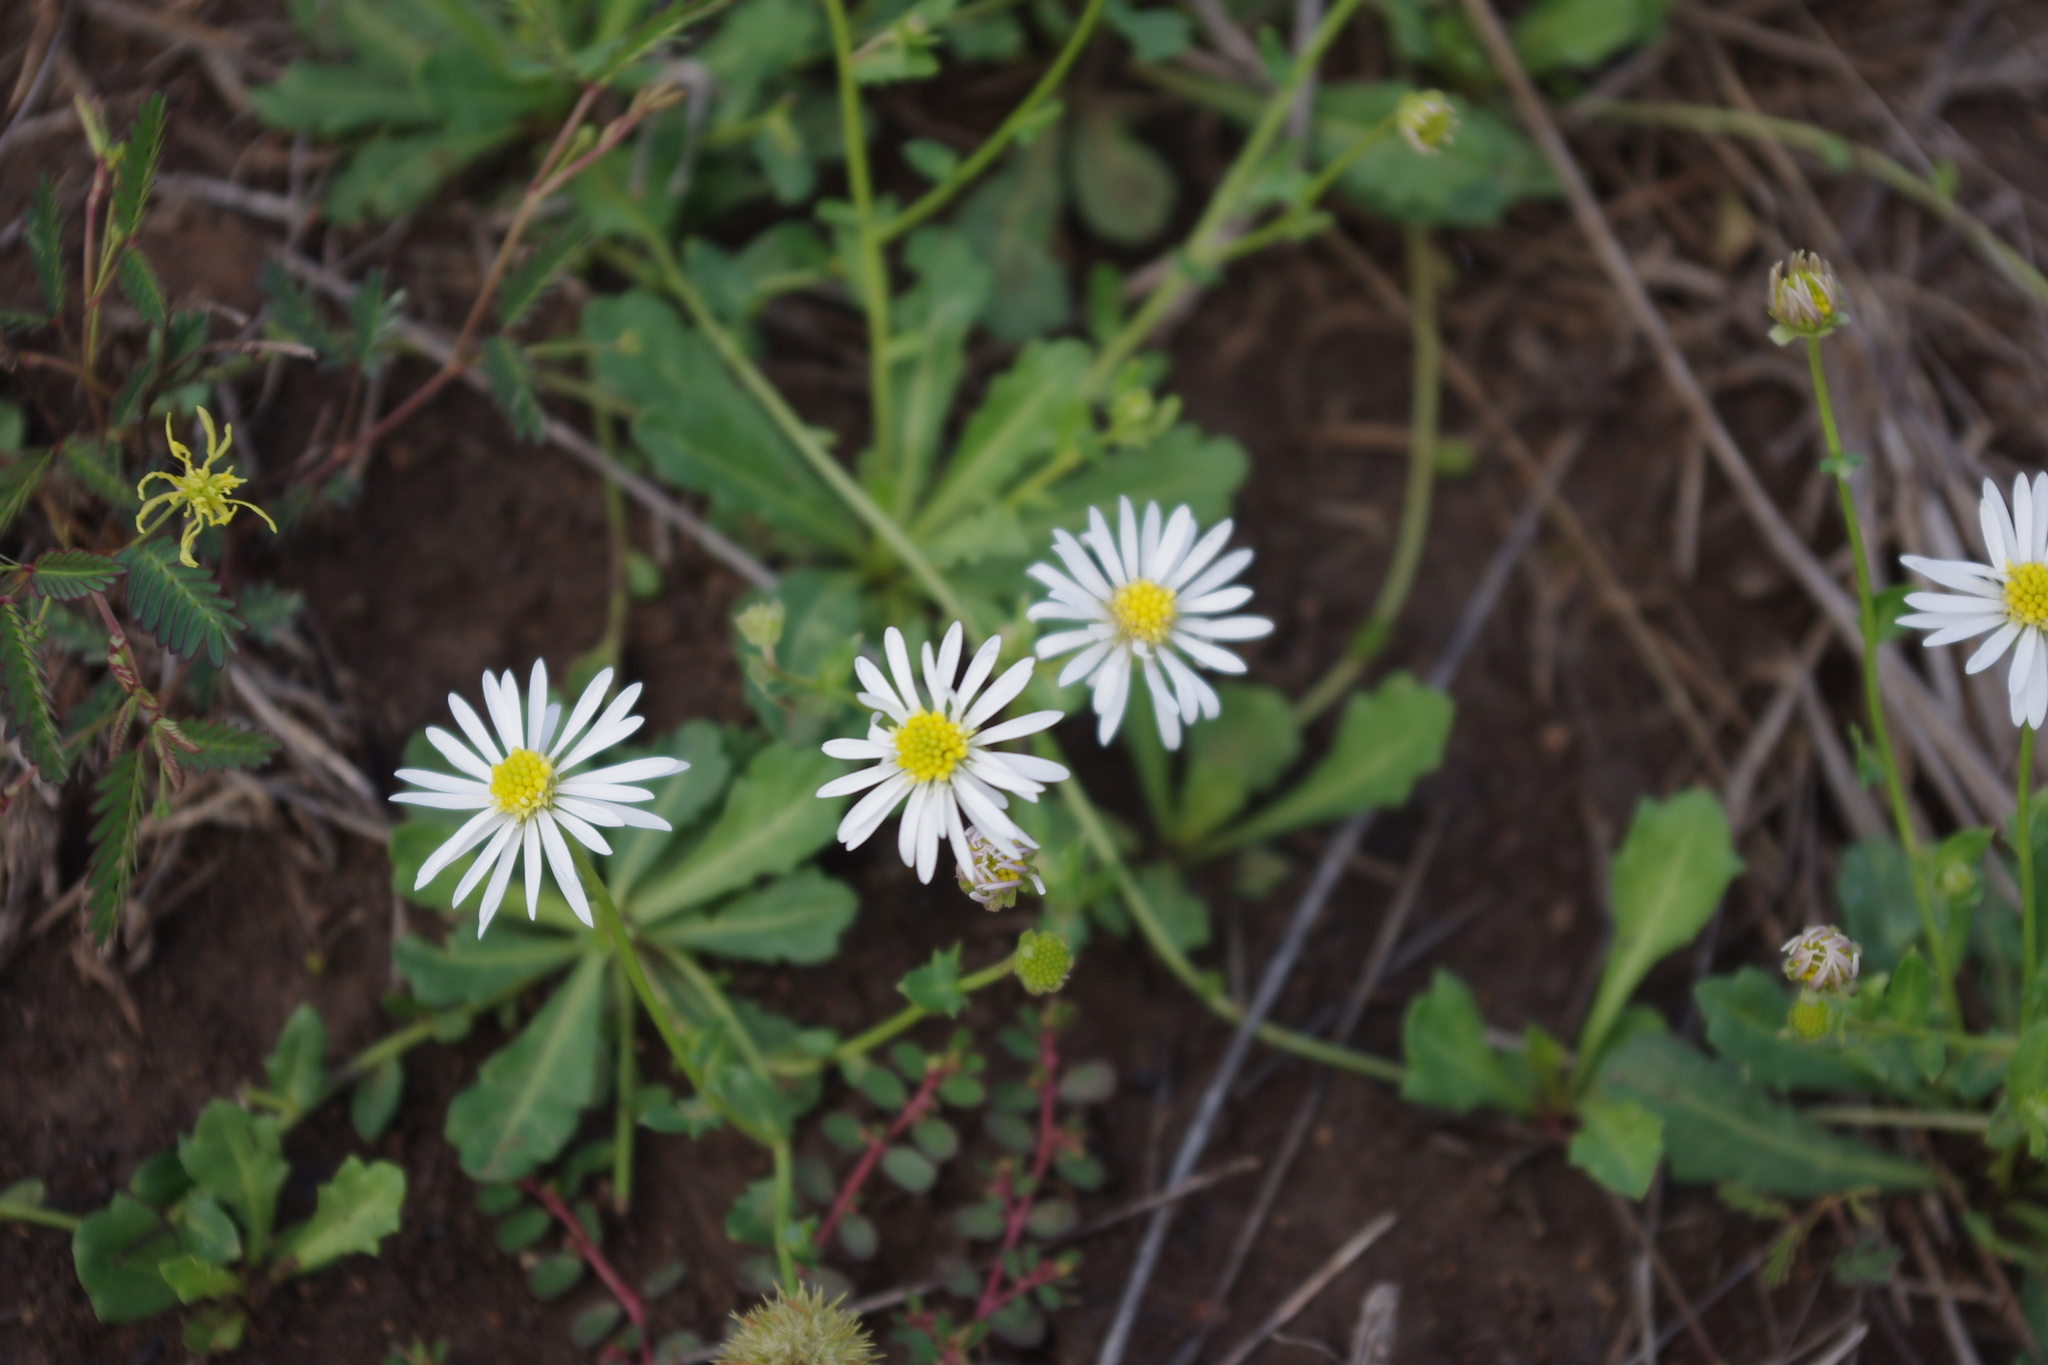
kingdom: Plantae
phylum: Tracheophyta
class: Magnoliopsida
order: Asterales
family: Asteraceae
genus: Calotis
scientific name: Calotis cuneata
